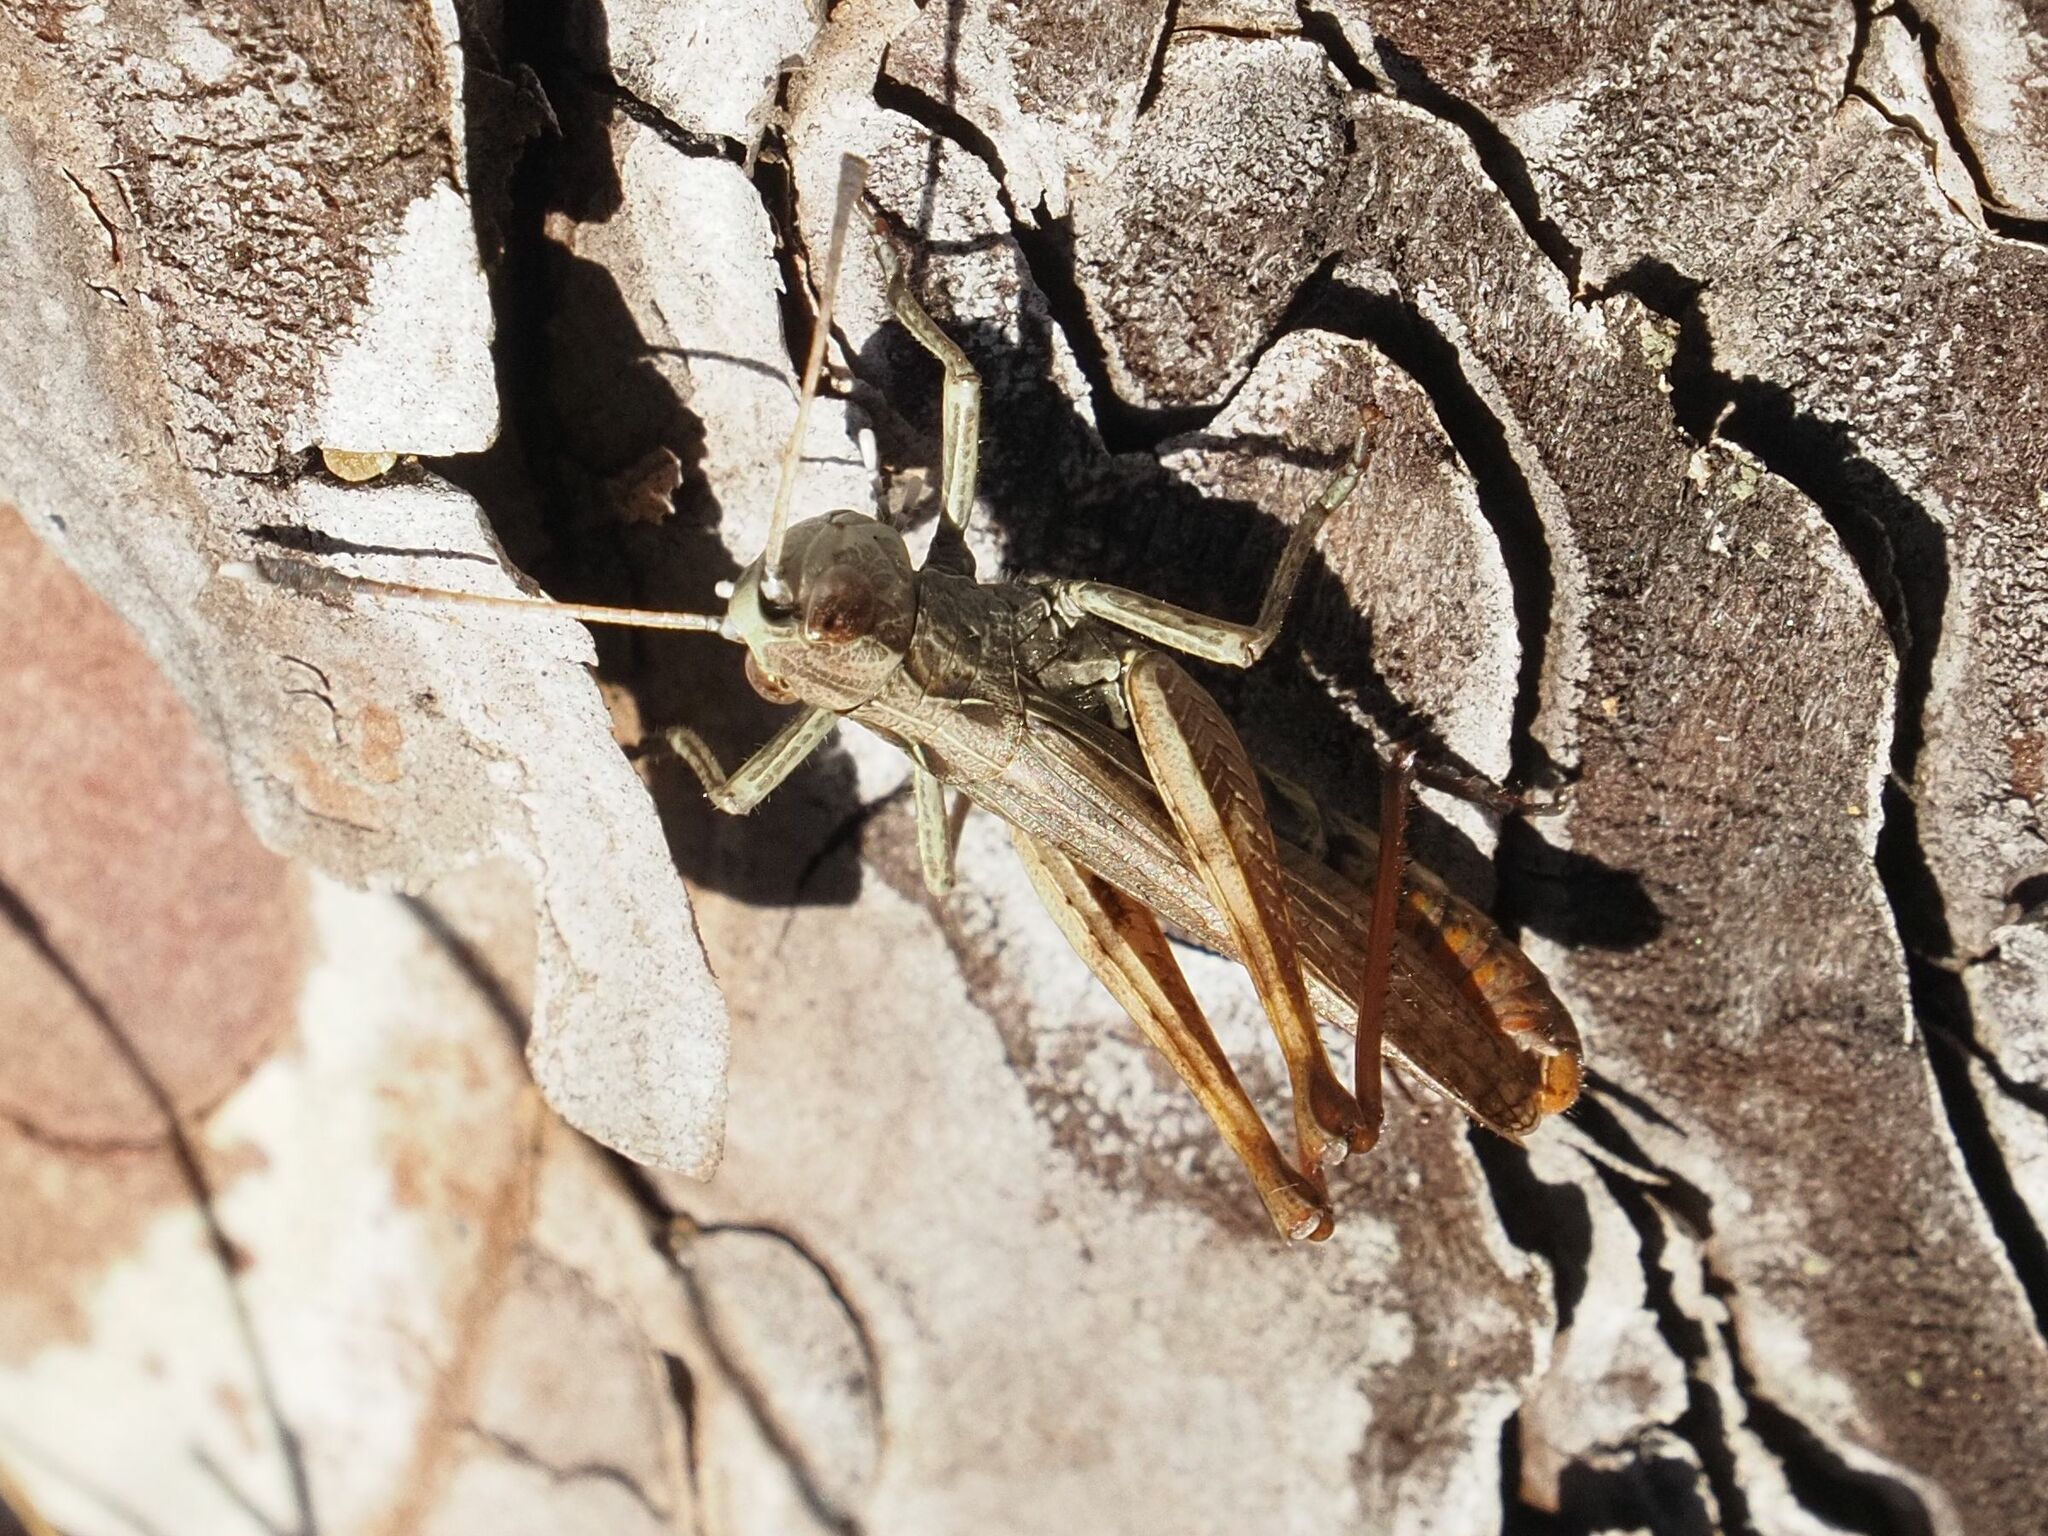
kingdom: Animalia
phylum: Arthropoda
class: Insecta
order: Orthoptera
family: Acrididae
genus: Gomphocerippus
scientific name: Gomphocerippus rufus
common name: Rufous grasshopper
